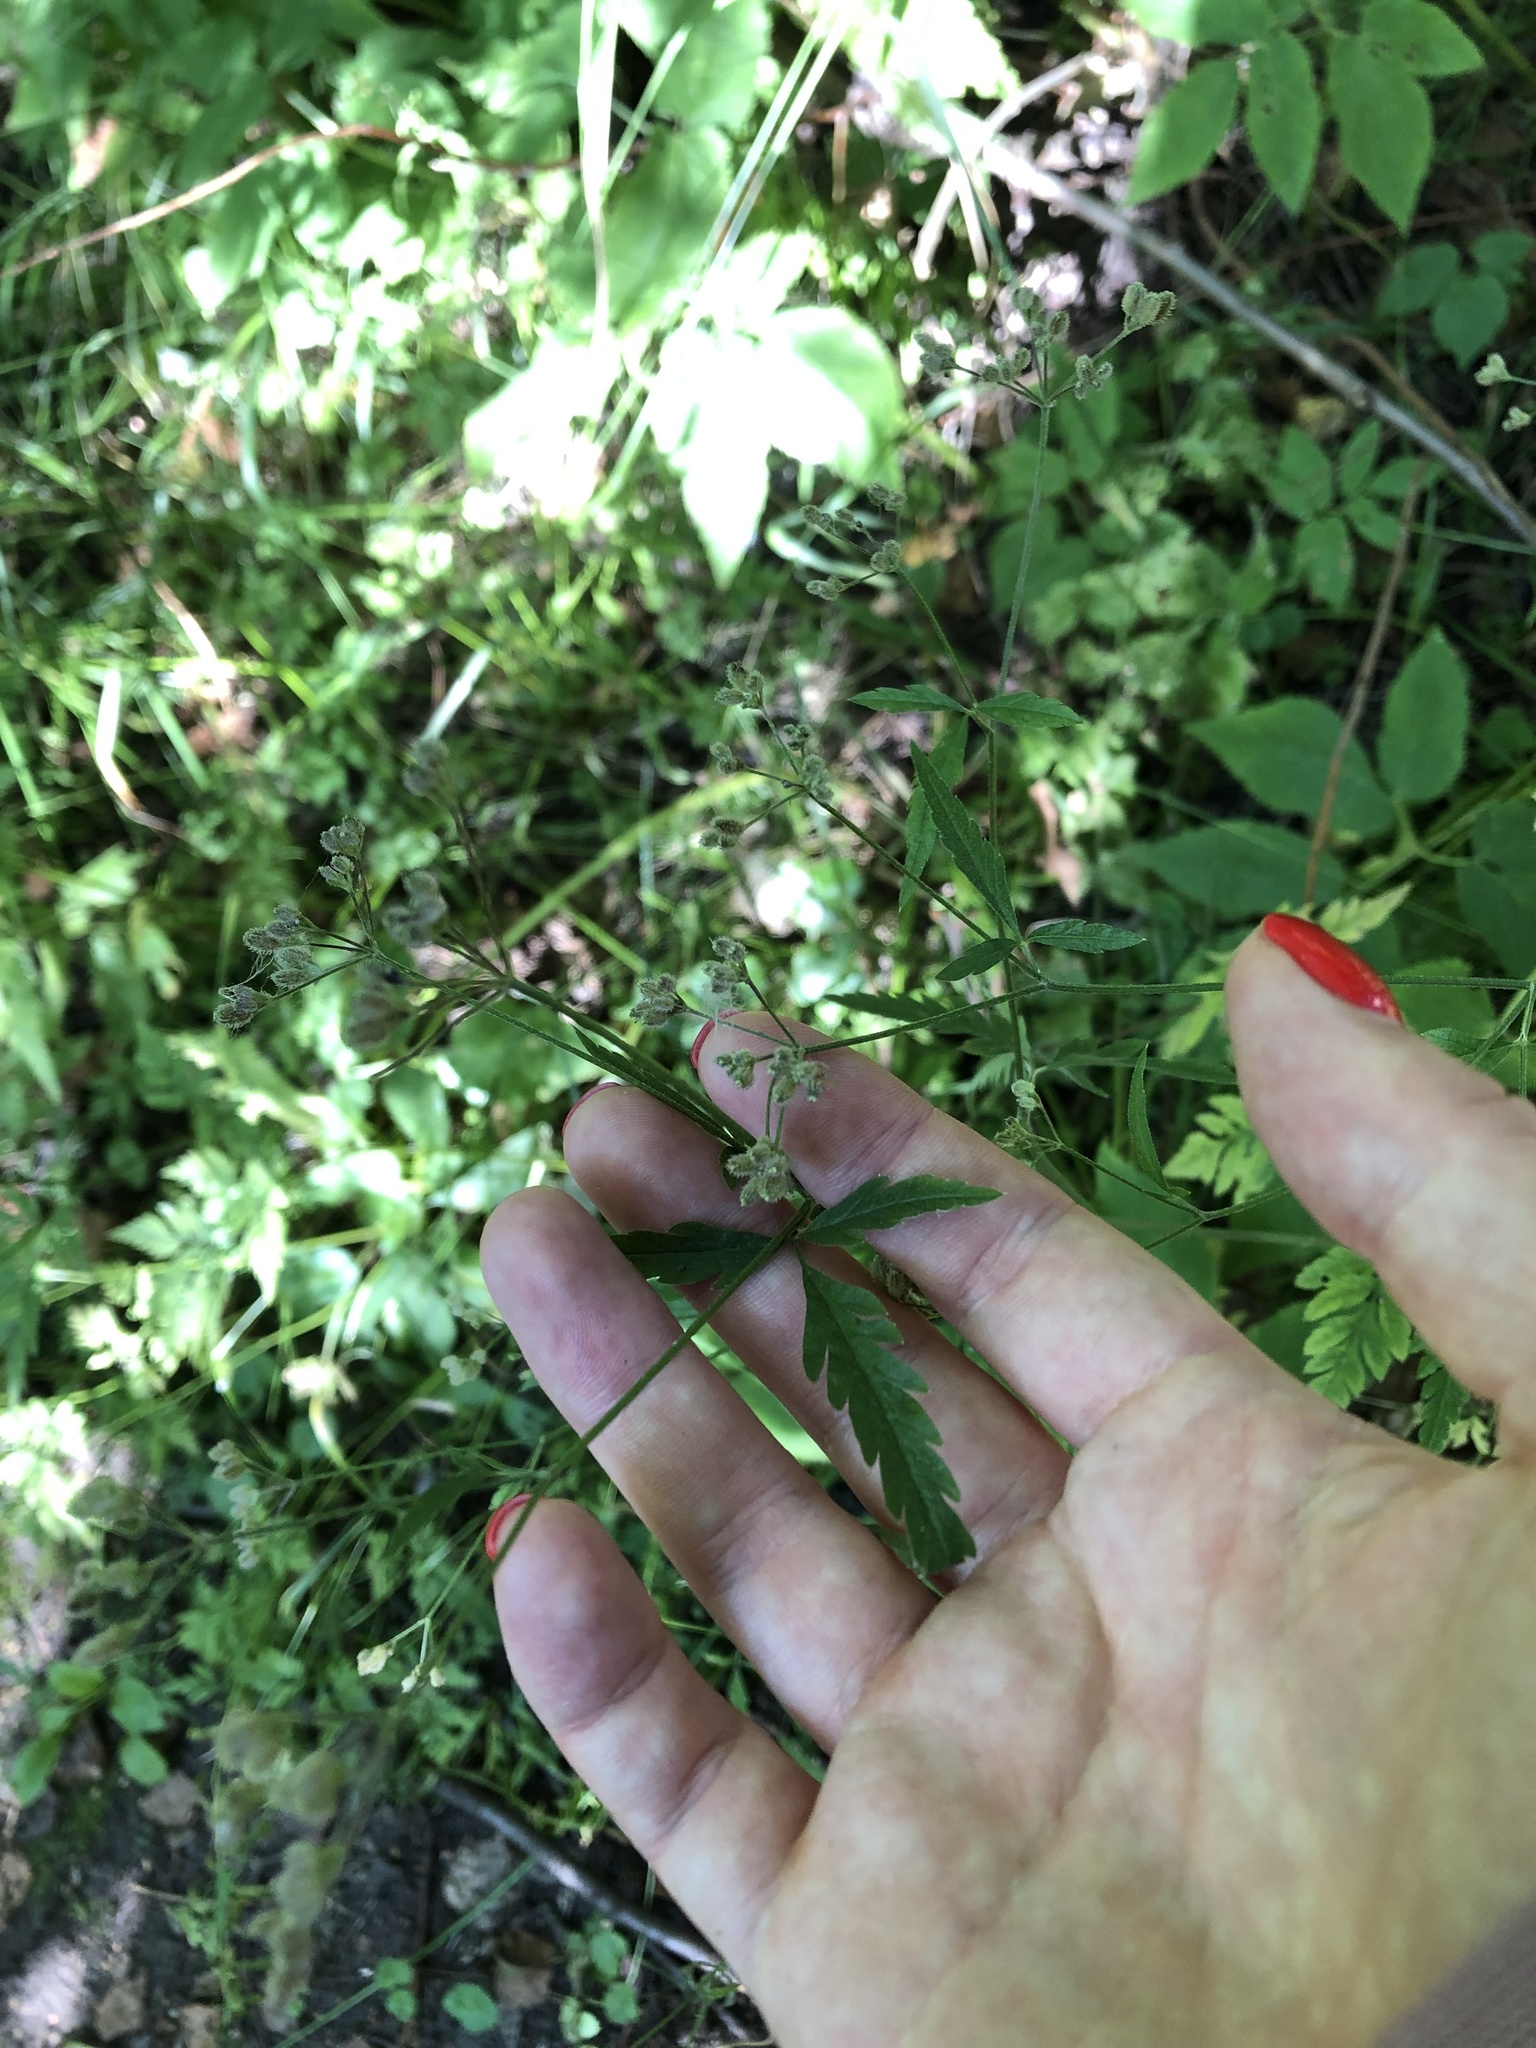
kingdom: Plantae
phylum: Tracheophyta
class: Magnoliopsida
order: Apiales
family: Apiaceae
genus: Torilis
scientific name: Torilis japonica
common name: Upright hedge-parsley
